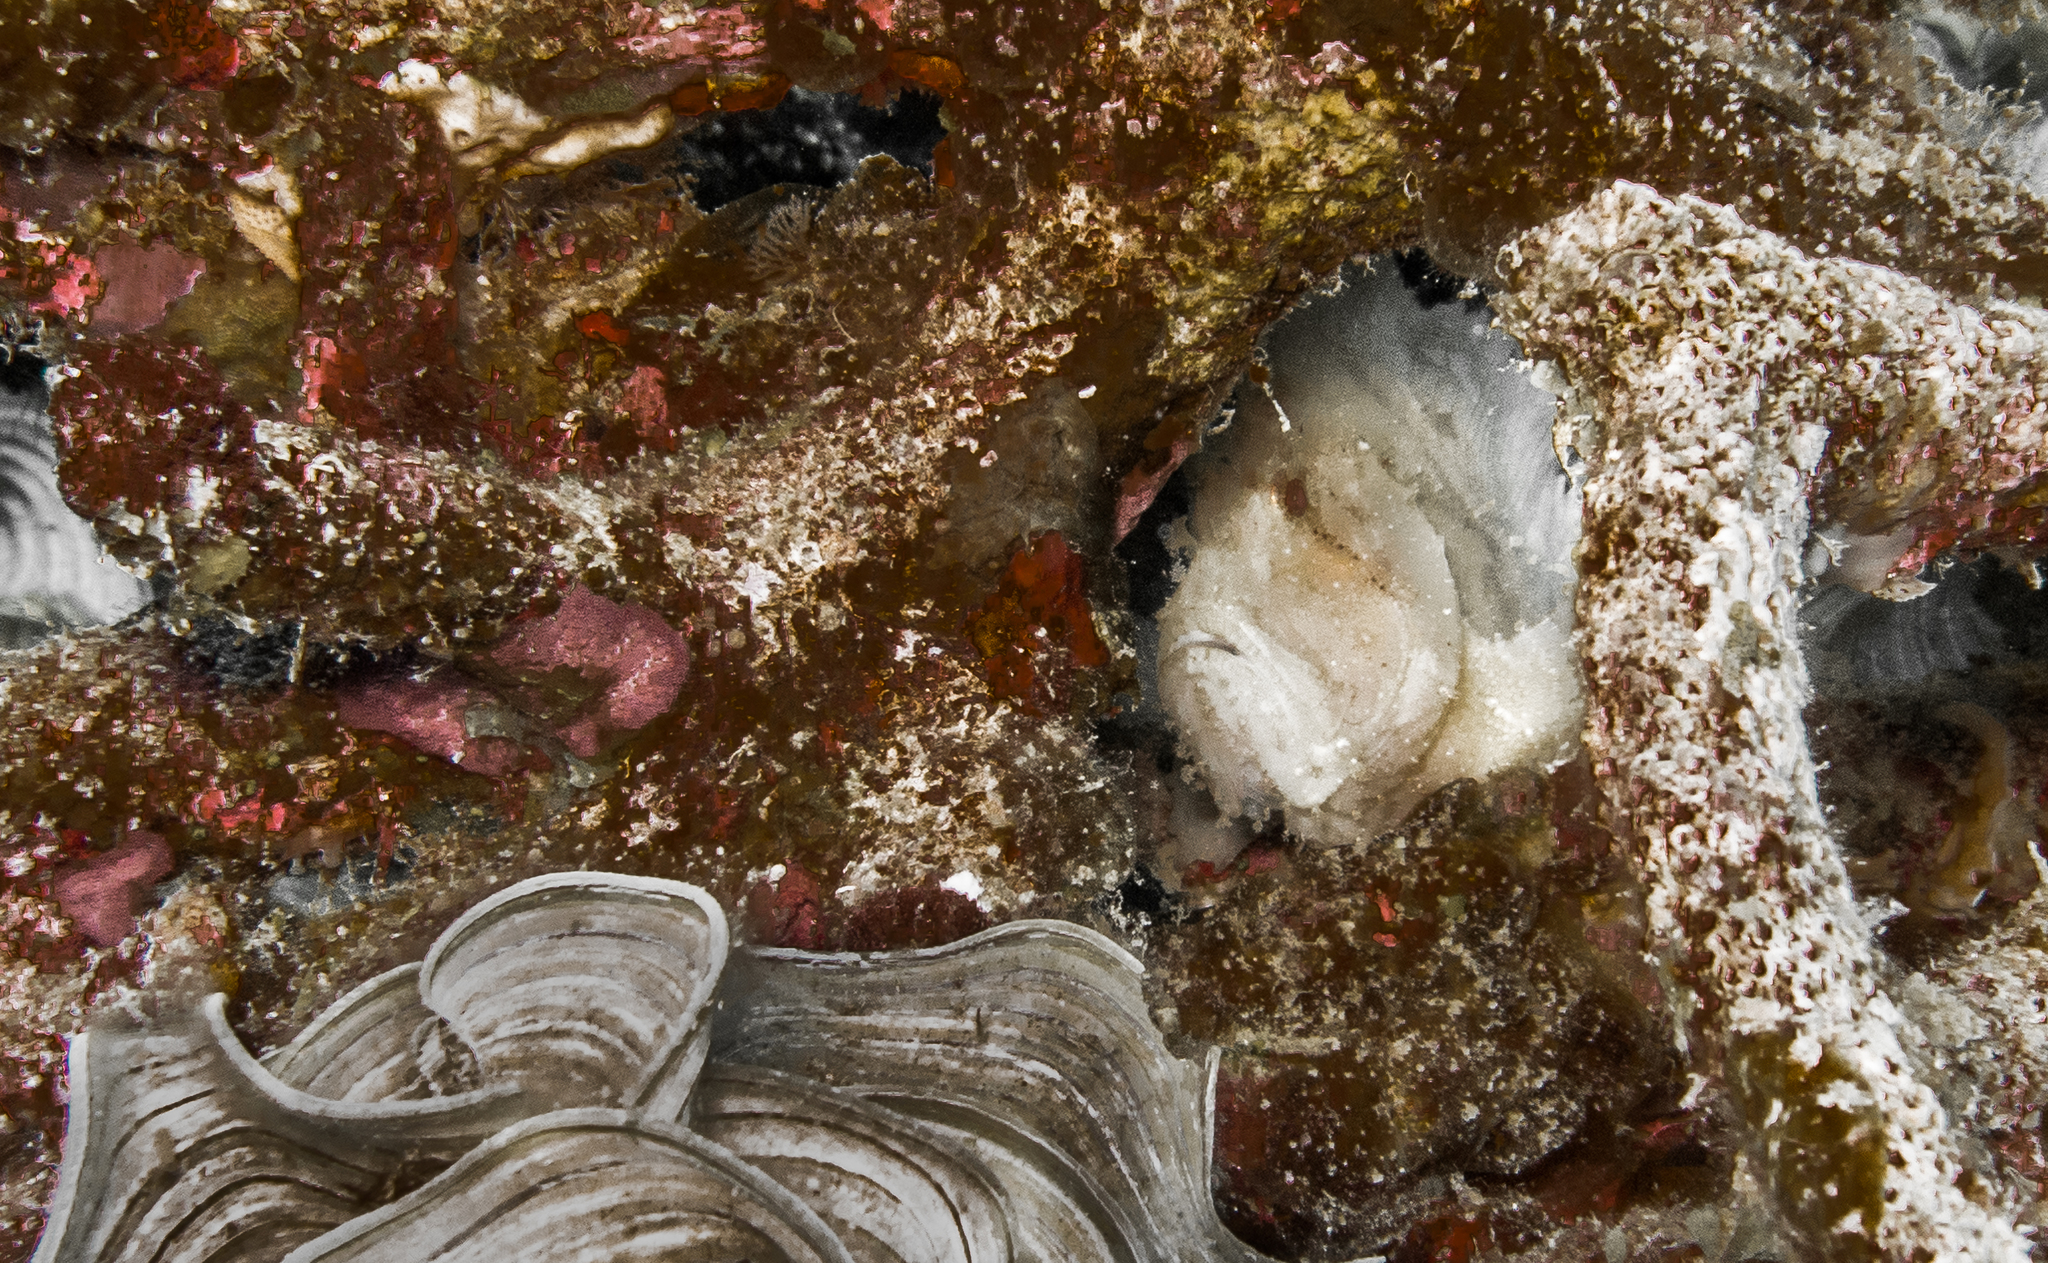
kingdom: Animalia
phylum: Chordata
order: Scorpaeniformes
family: Scorpaenidae
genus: Taenianotus
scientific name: Taenianotus triacanthus
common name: Leaf scorpionfish
